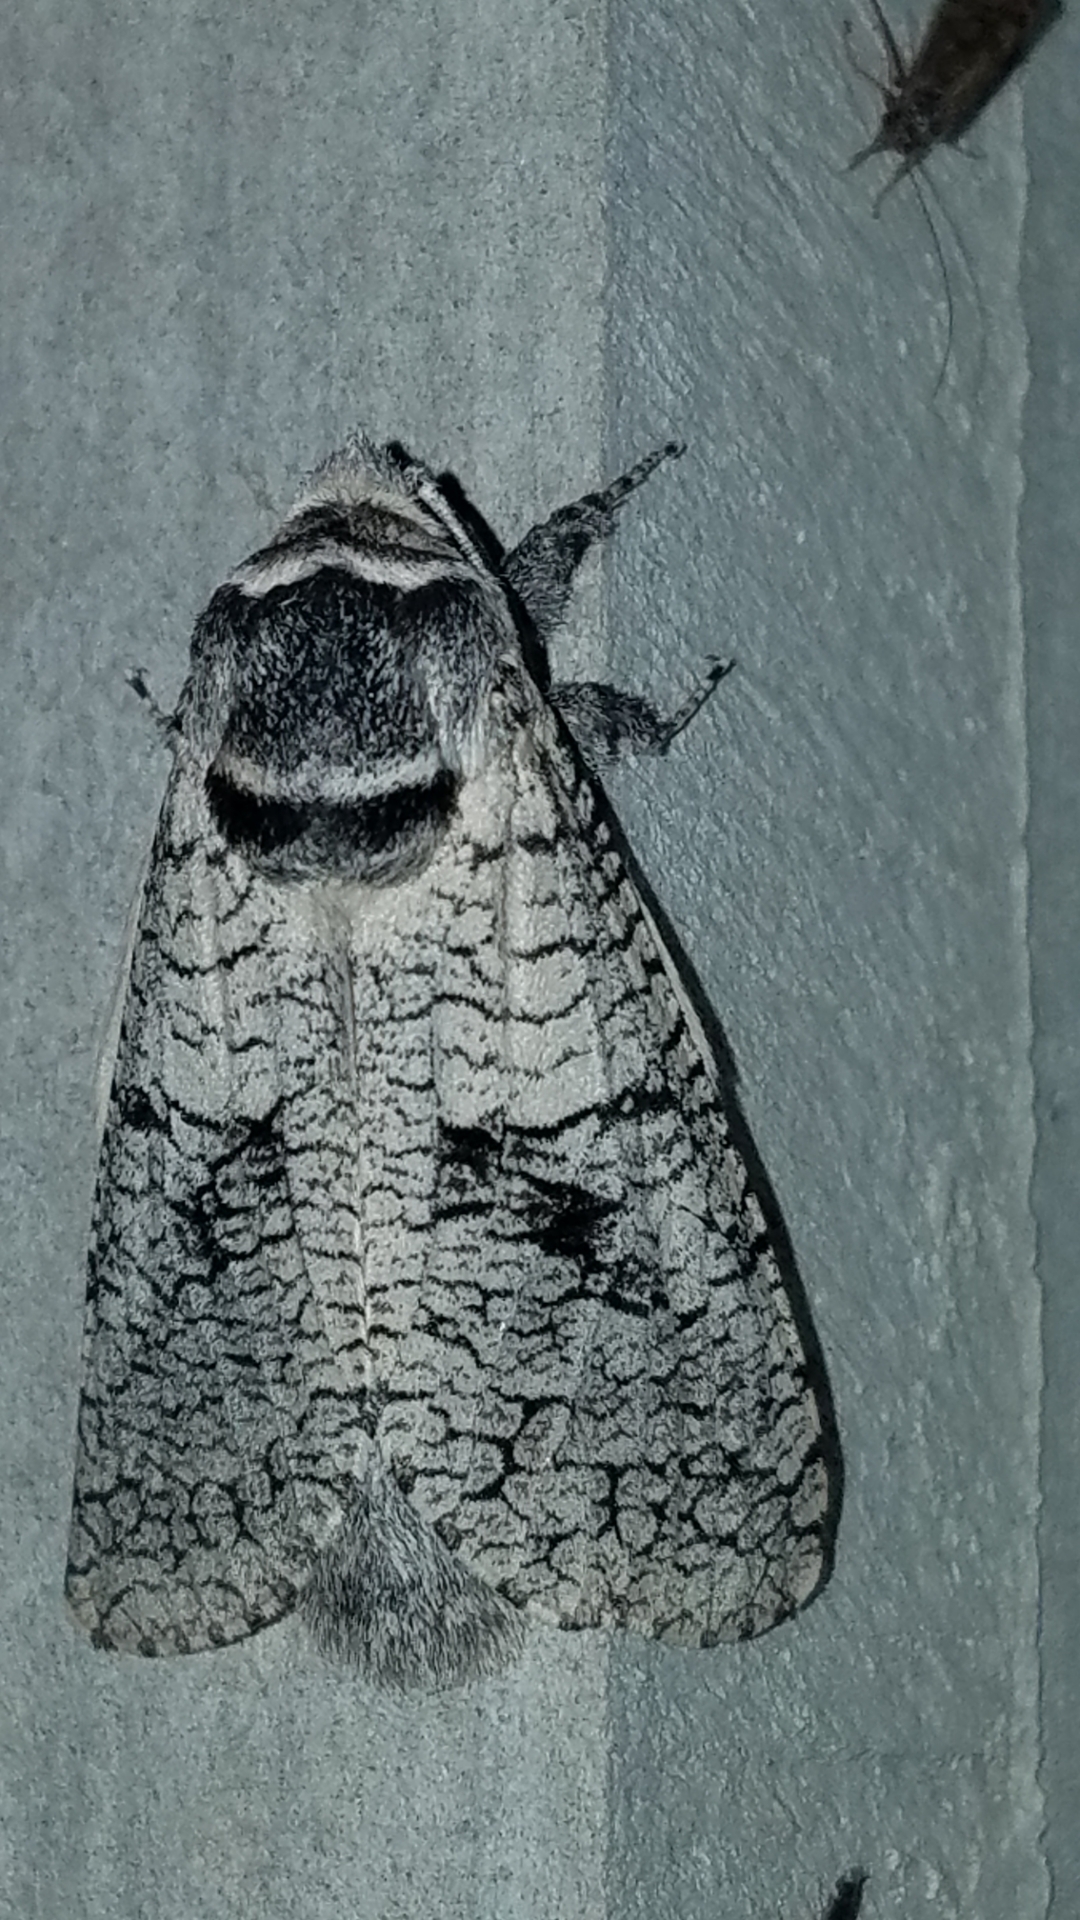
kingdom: Animalia
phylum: Arthropoda
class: Insecta
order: Lepidoptera
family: Cossidae
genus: Acossus
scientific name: Acossus populi
